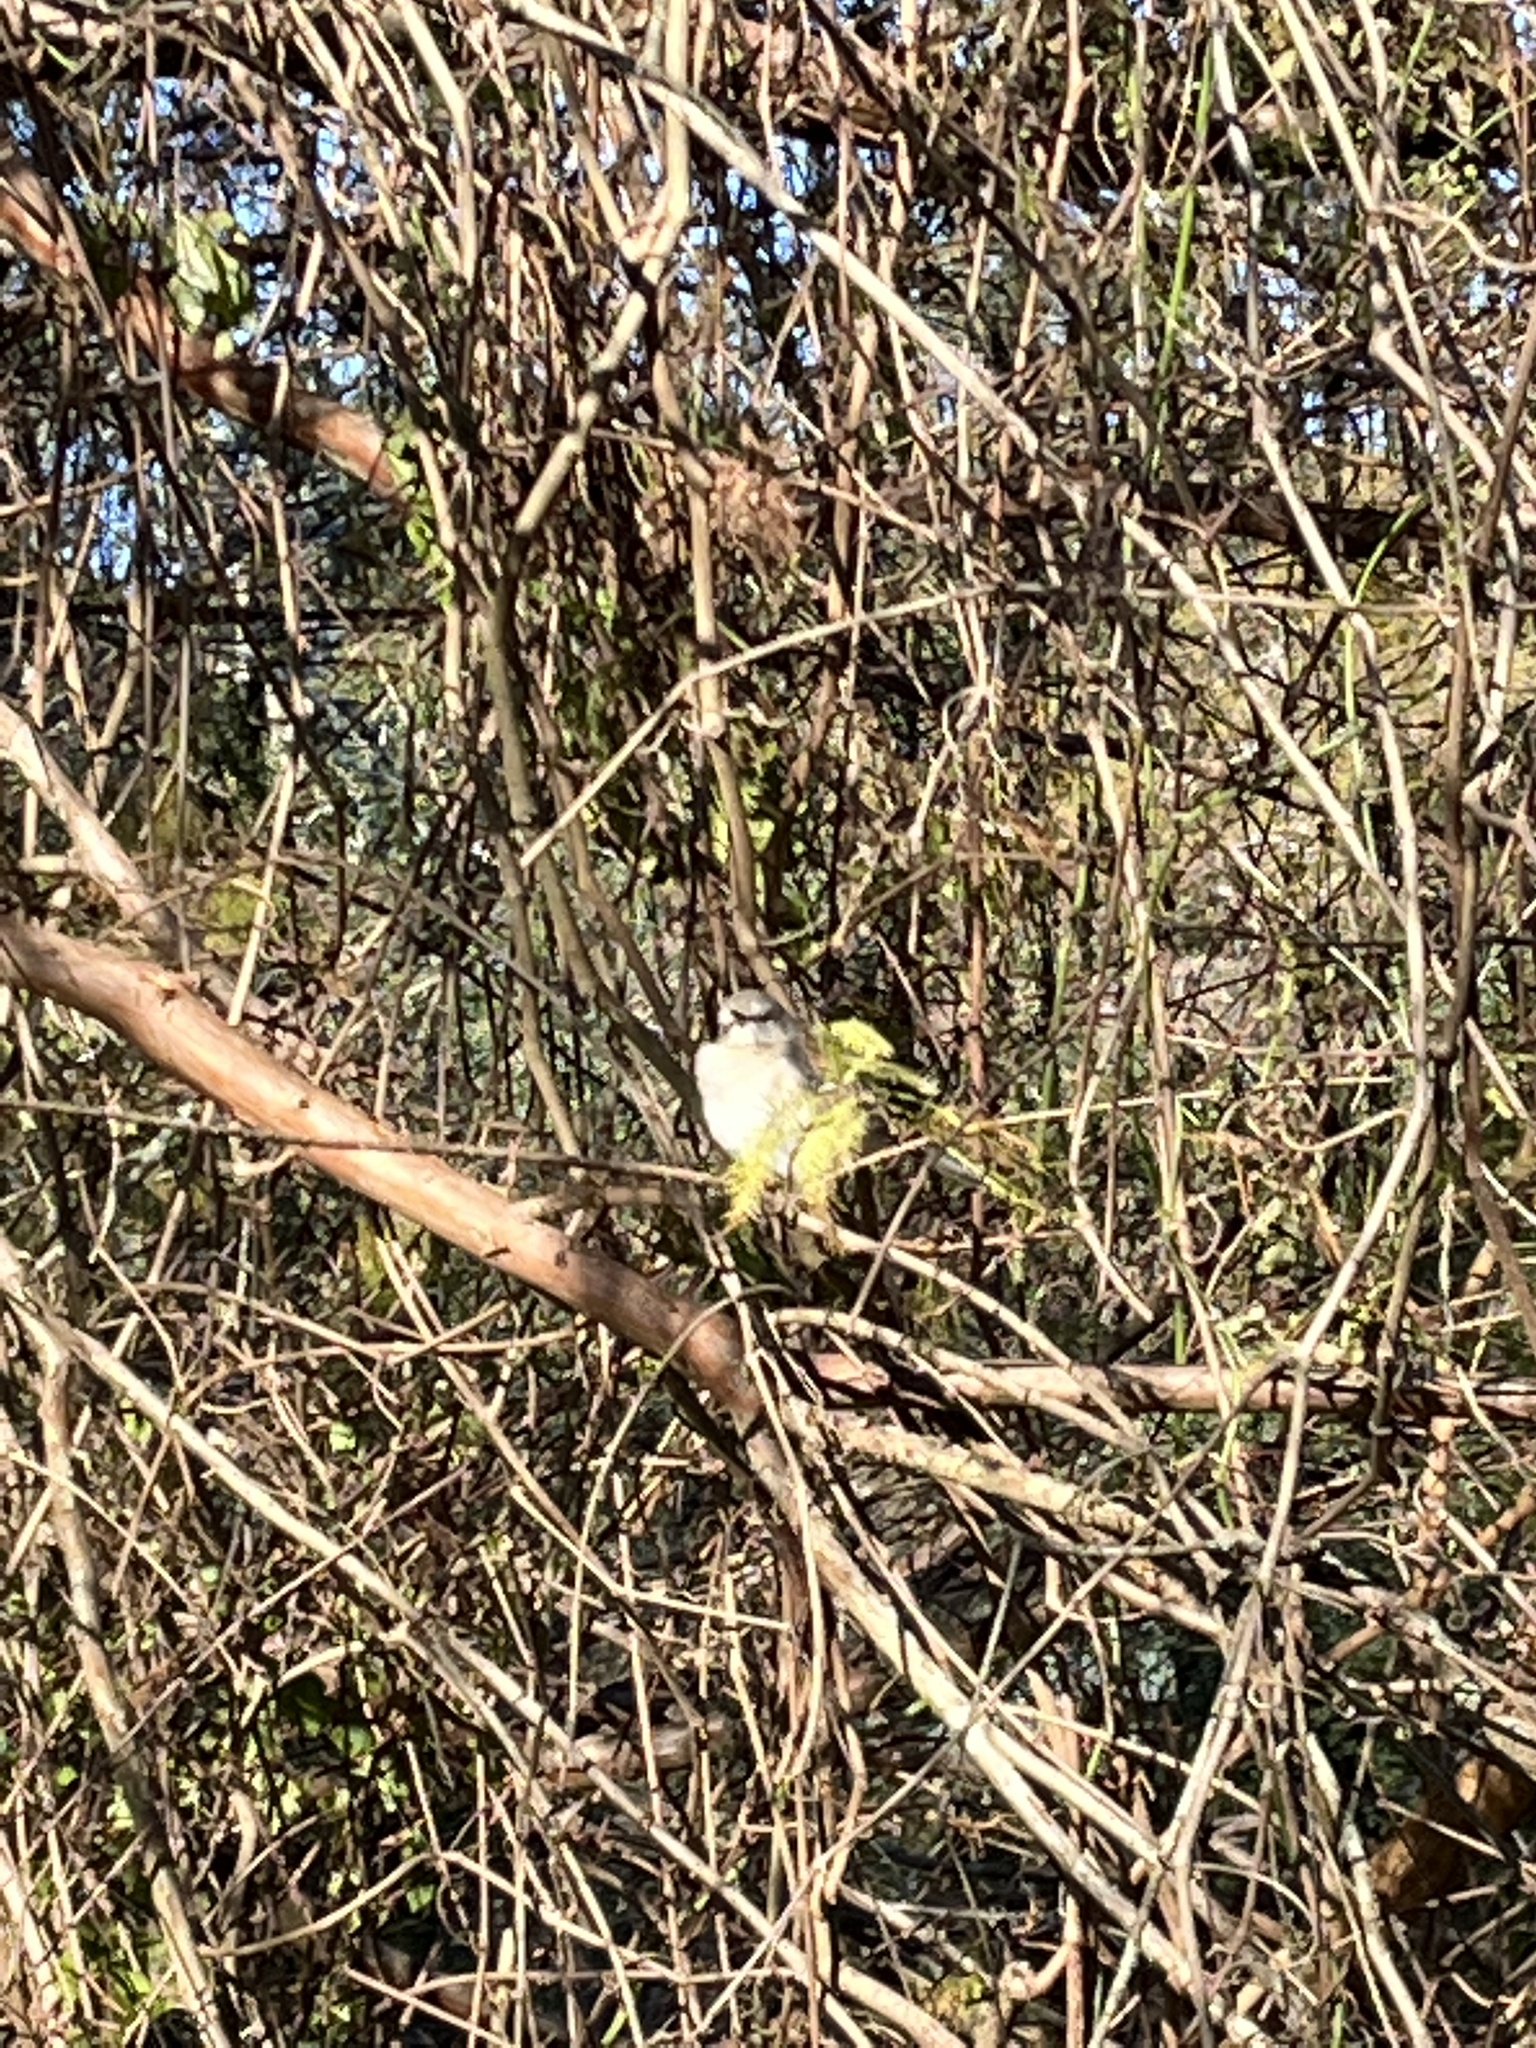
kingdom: Animalia
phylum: Chordata
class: Aves
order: Passeriformes
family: Mimidae
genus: Mimus
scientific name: Mimus polyglottos
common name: Northern mockingbird
